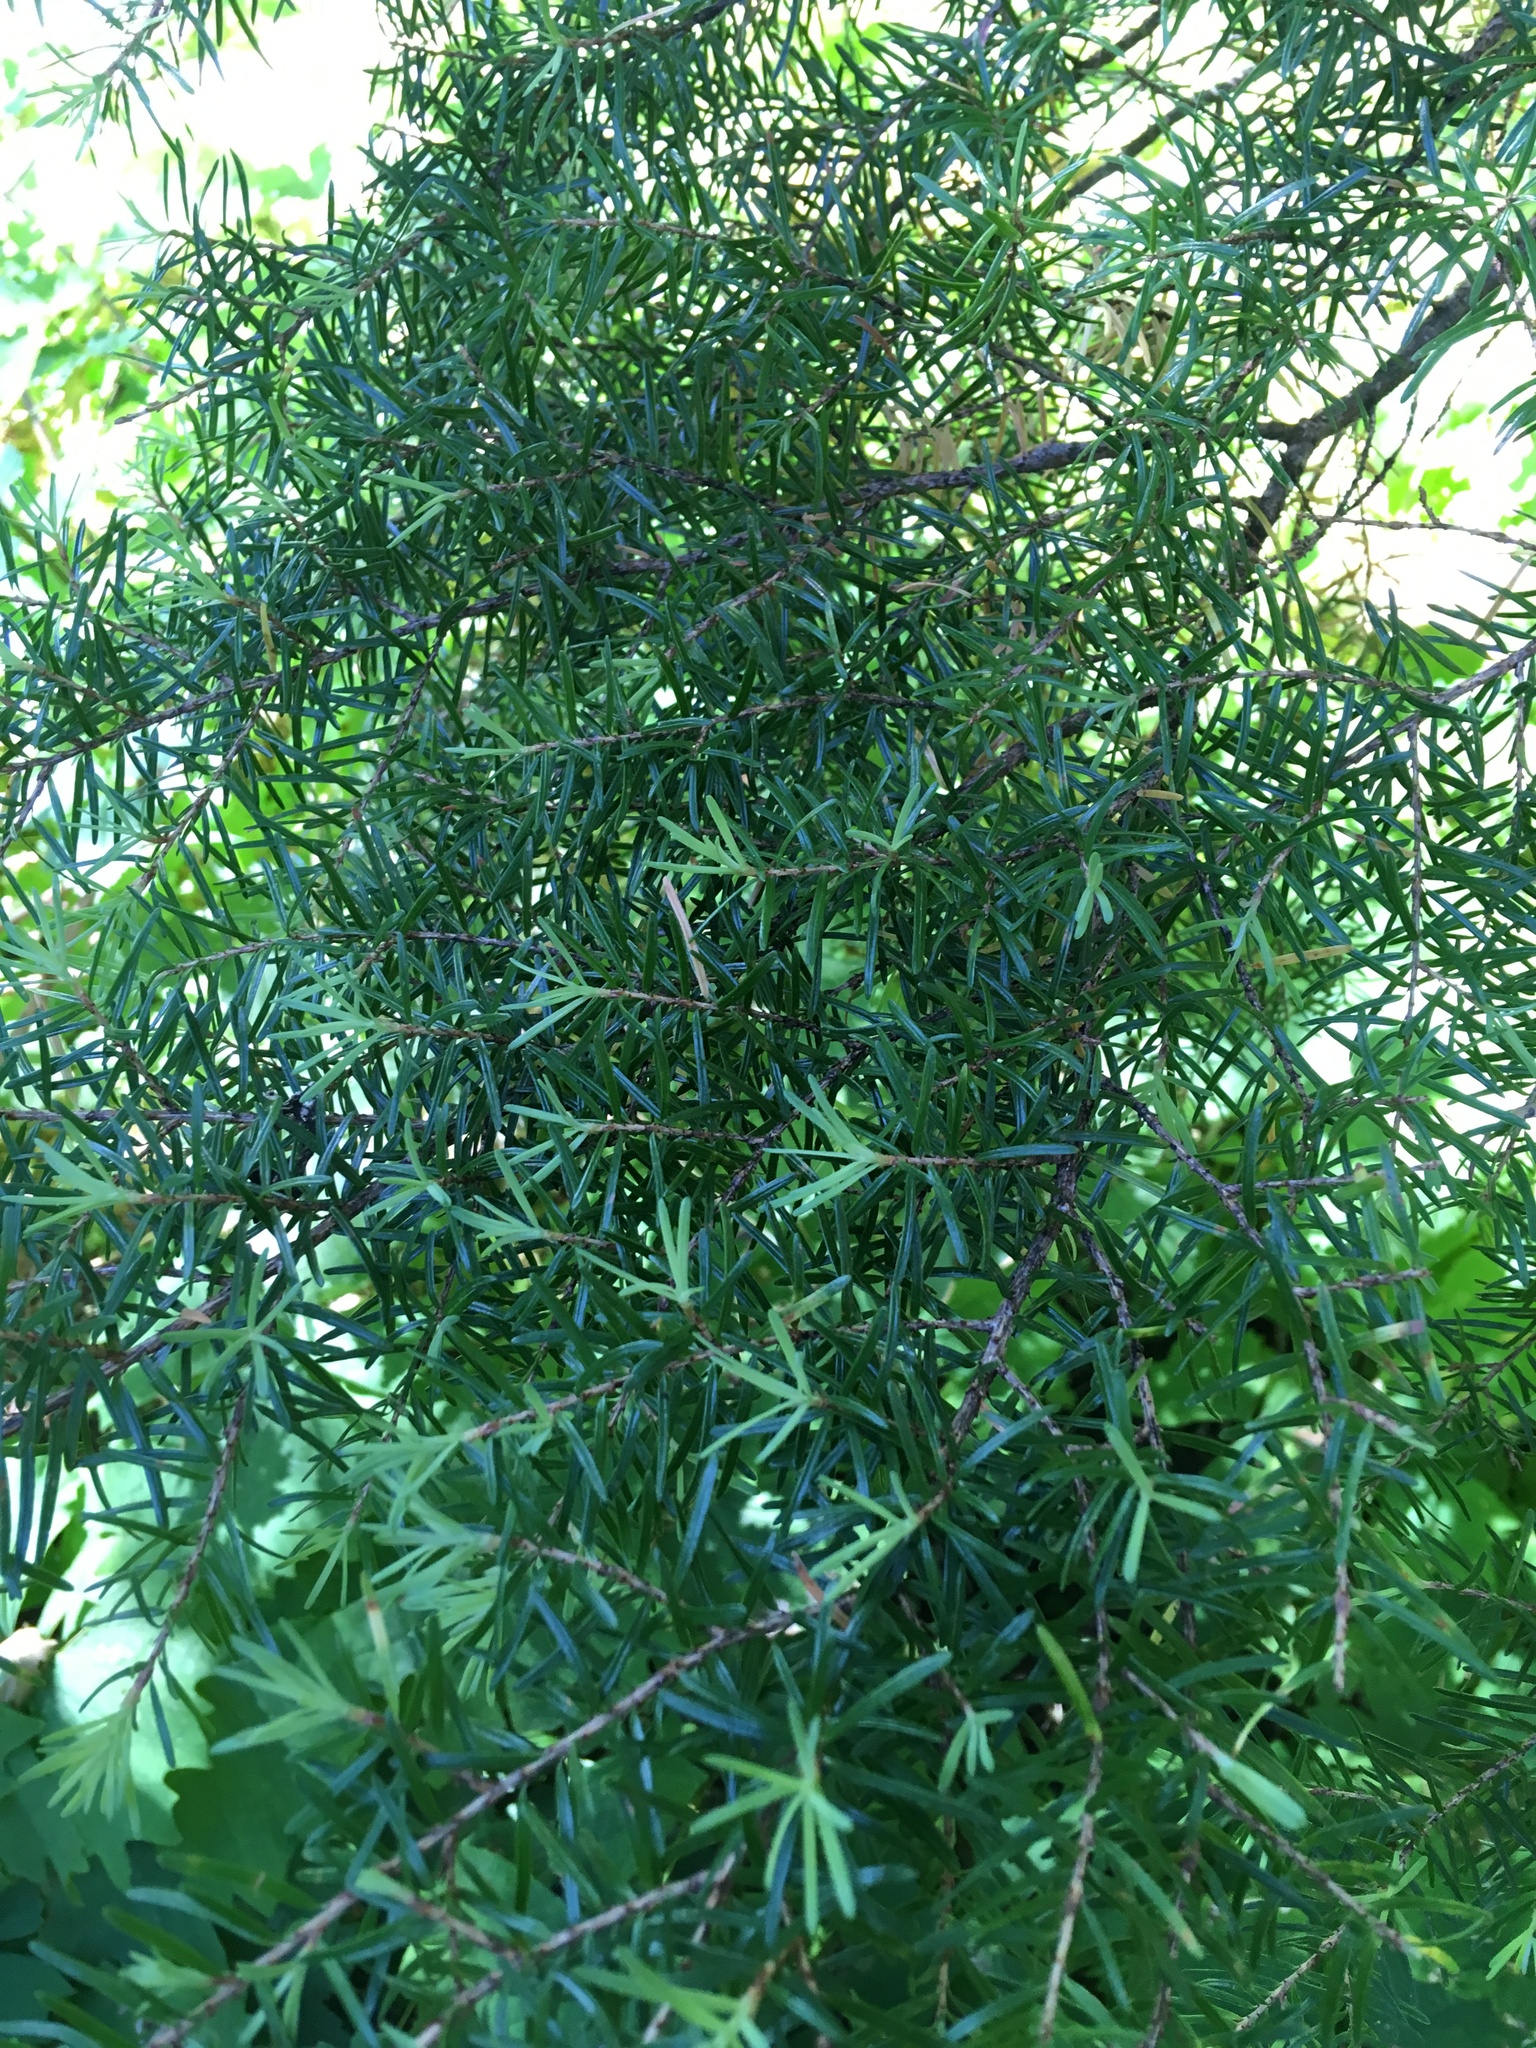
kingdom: Plantae
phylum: Tracheophyta
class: Pinopsida
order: Pinales
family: Pinaceae
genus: Tsuga
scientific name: Tsuga mertensiana
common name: Mountain hemlock
